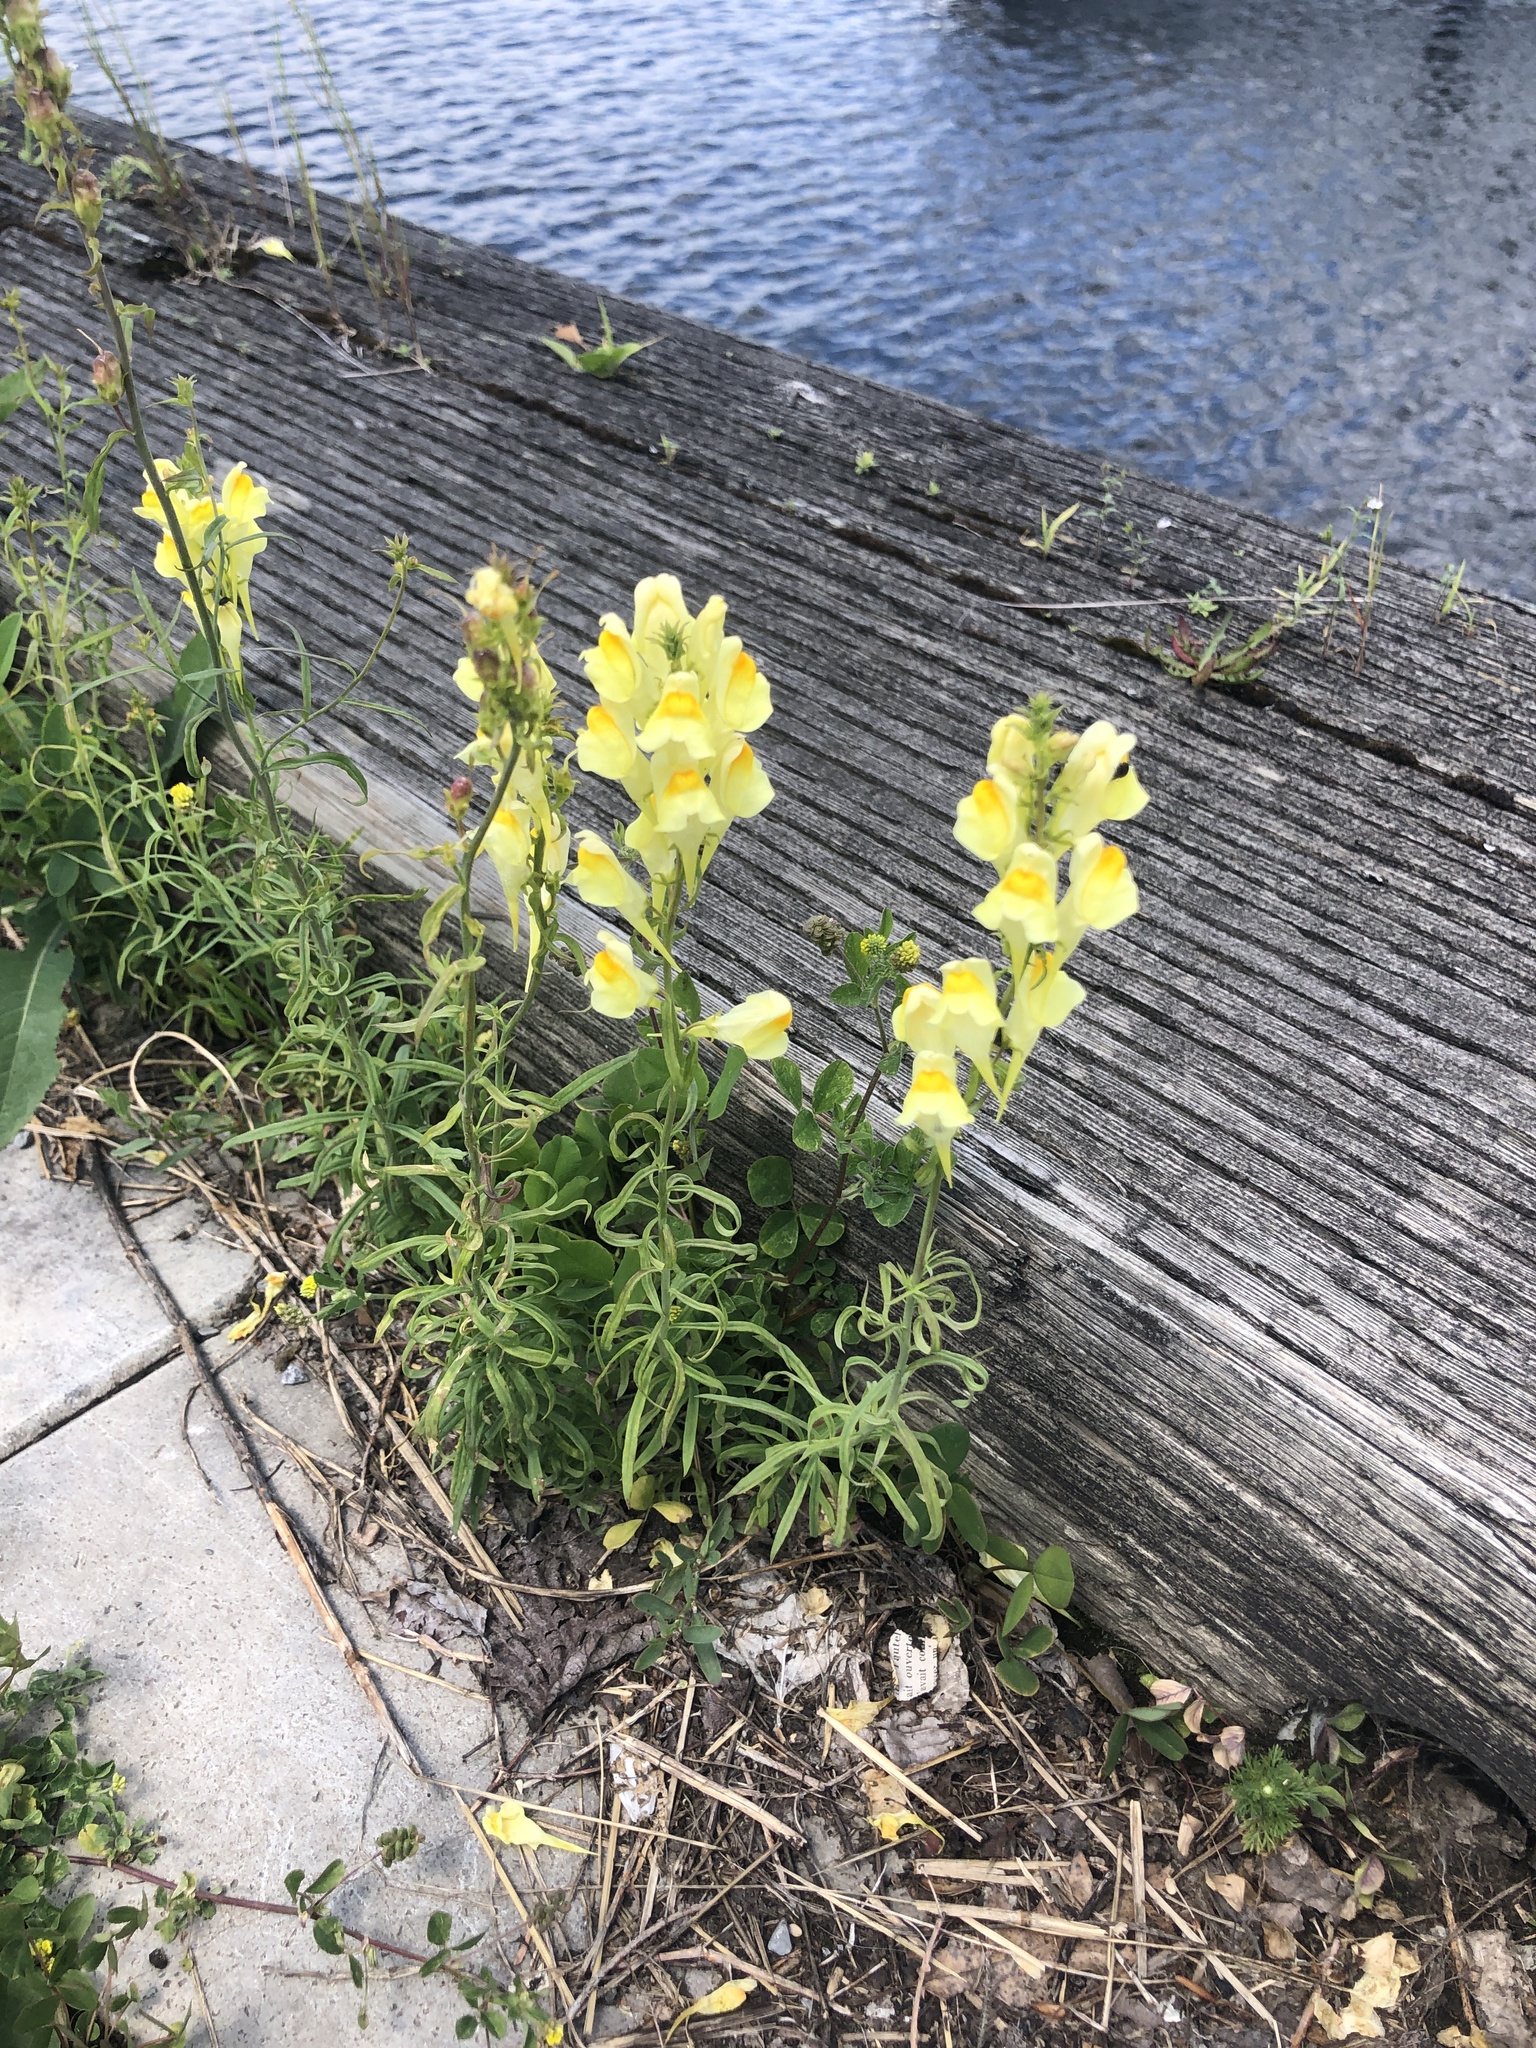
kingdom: Plantae
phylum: Tracheophyta
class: Magnoliopsida
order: Lamiales
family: Plantaginaceae
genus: Linaria
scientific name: Linaria vulgaris
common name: Butter and eggs
